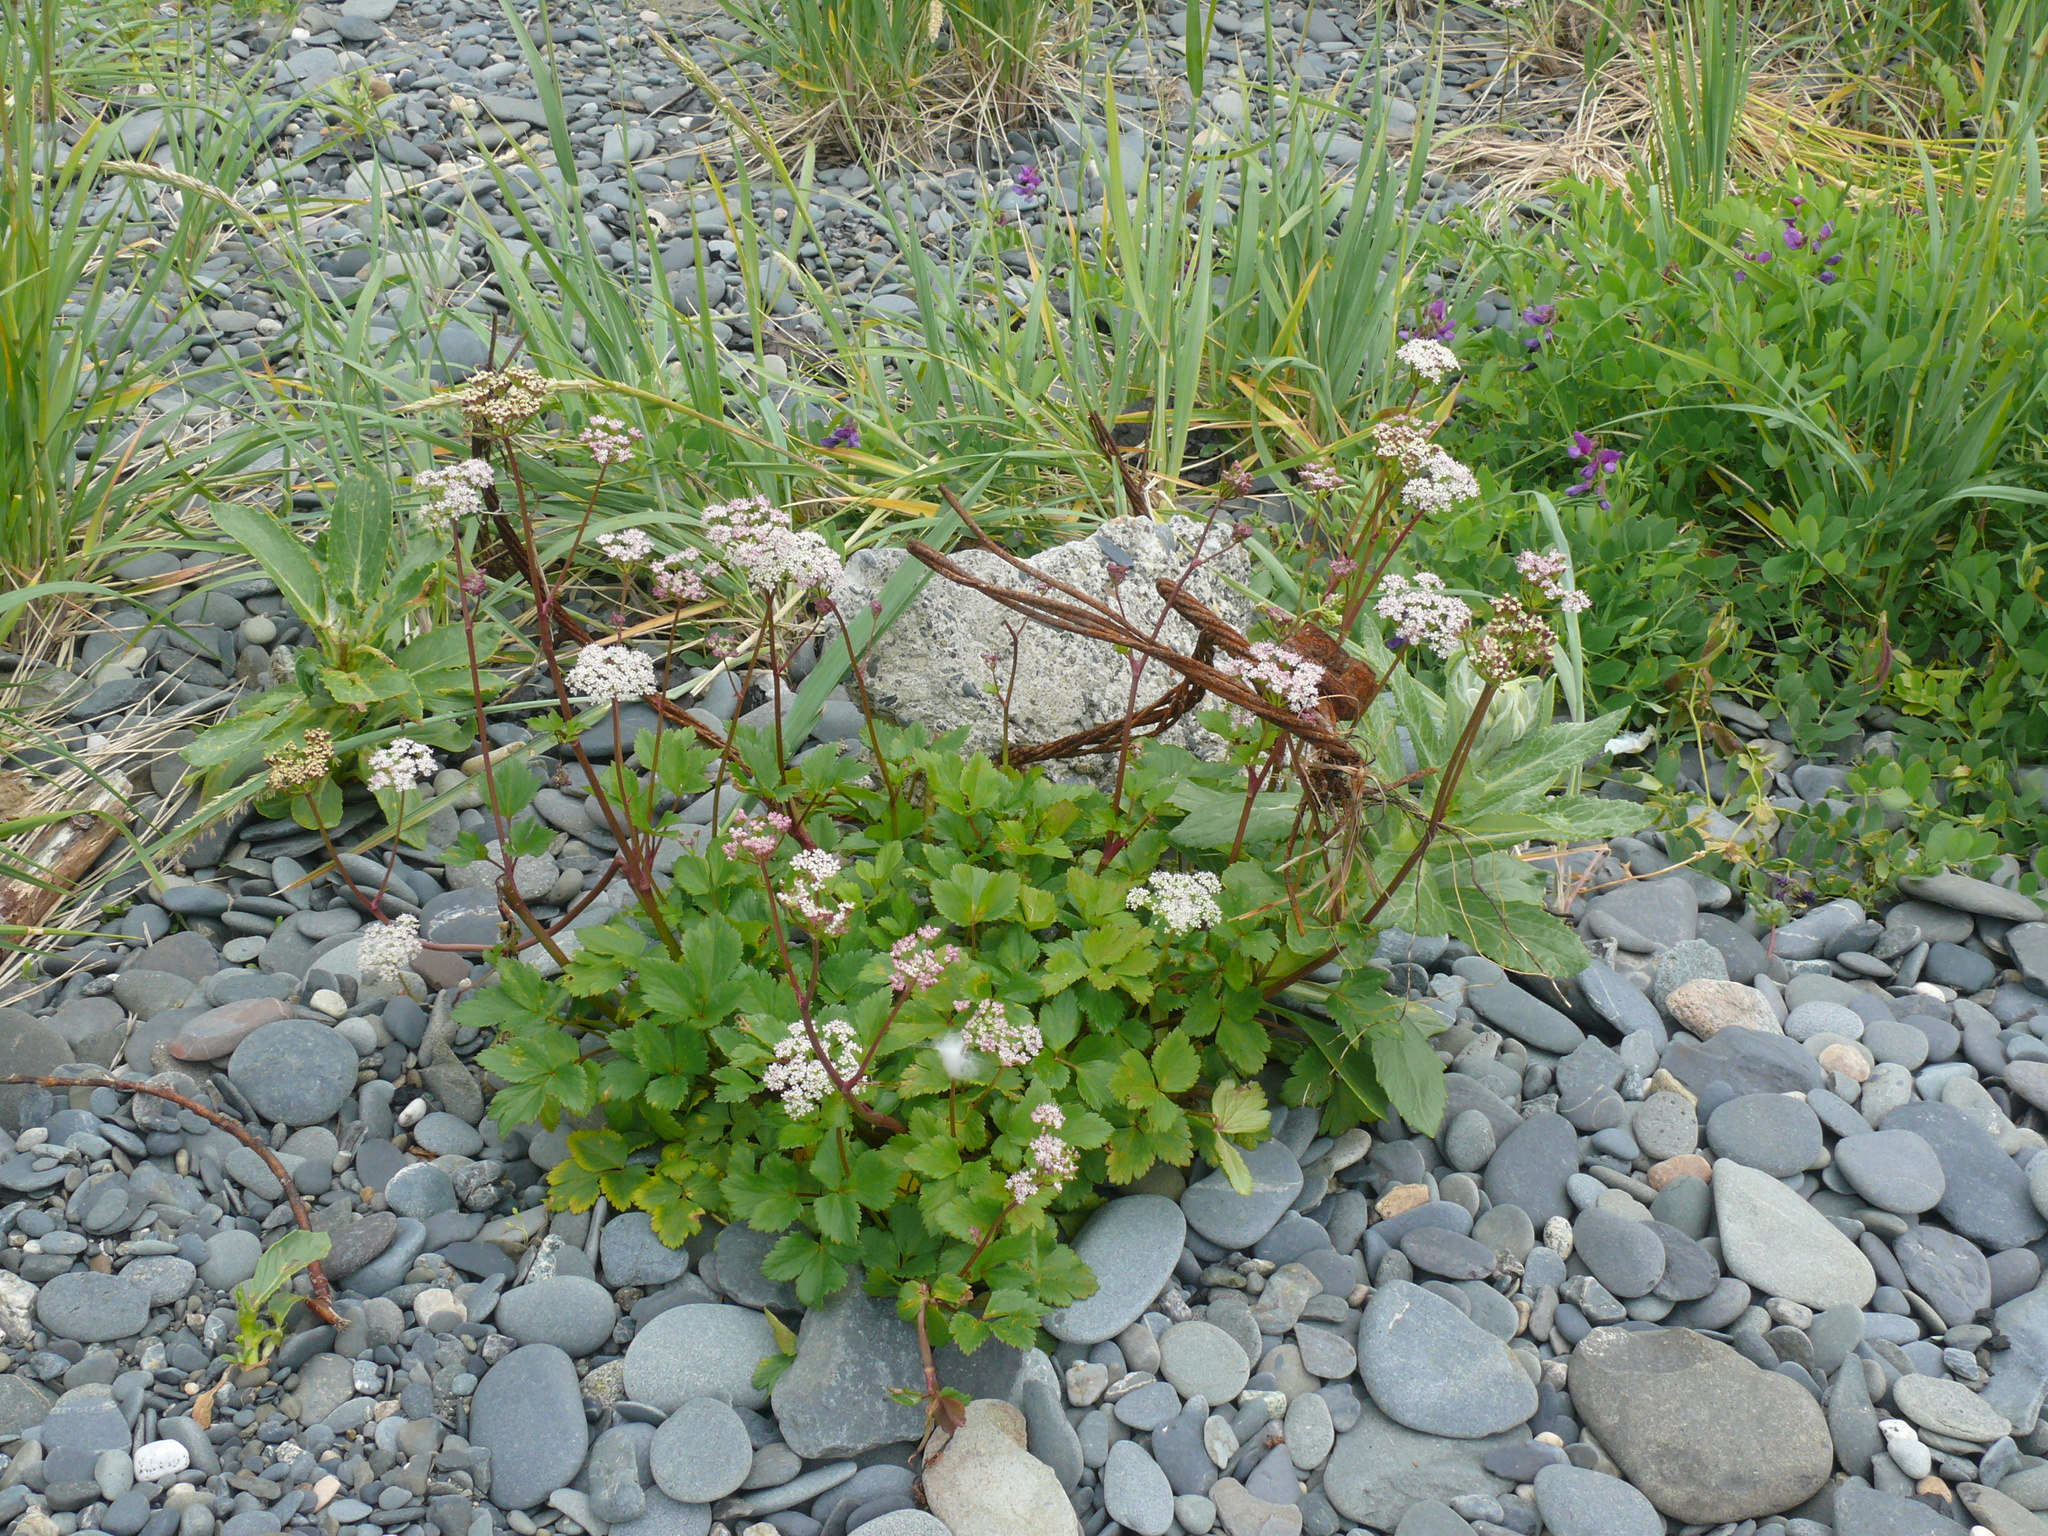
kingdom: Plantae
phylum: Tracheophyta
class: Magnoliopsida
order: Apiales
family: Apiaceae
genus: Ligusticum
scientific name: Ligusticum scothicum
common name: Beach lovage
